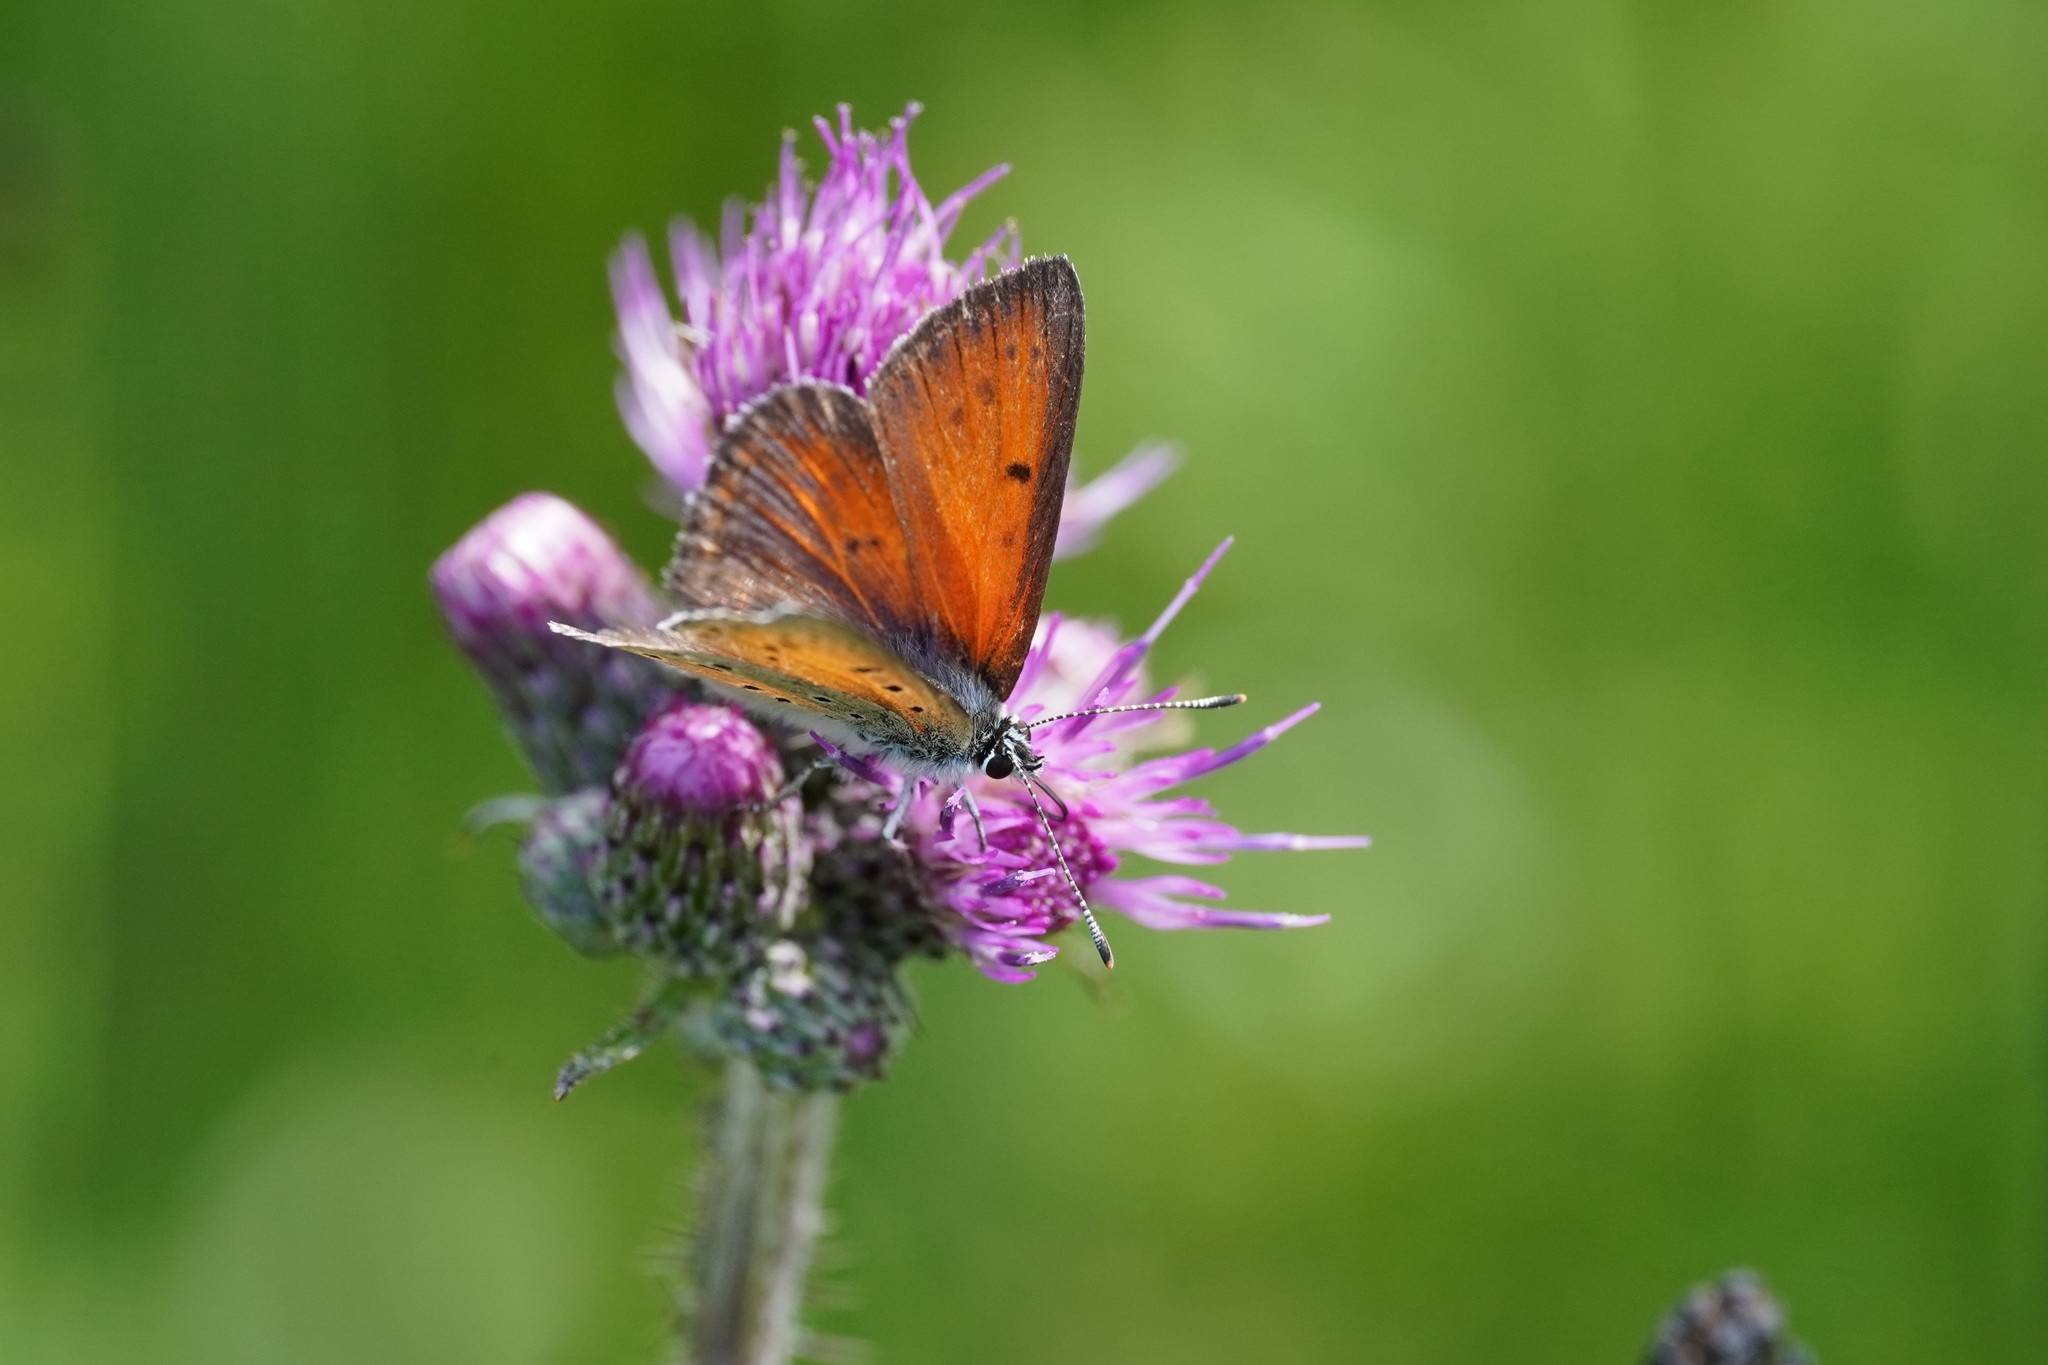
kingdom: Animalia
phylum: Arthropoda
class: Insecta
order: Lepidoptera
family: Lycaenidae
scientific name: Lycaenidae
